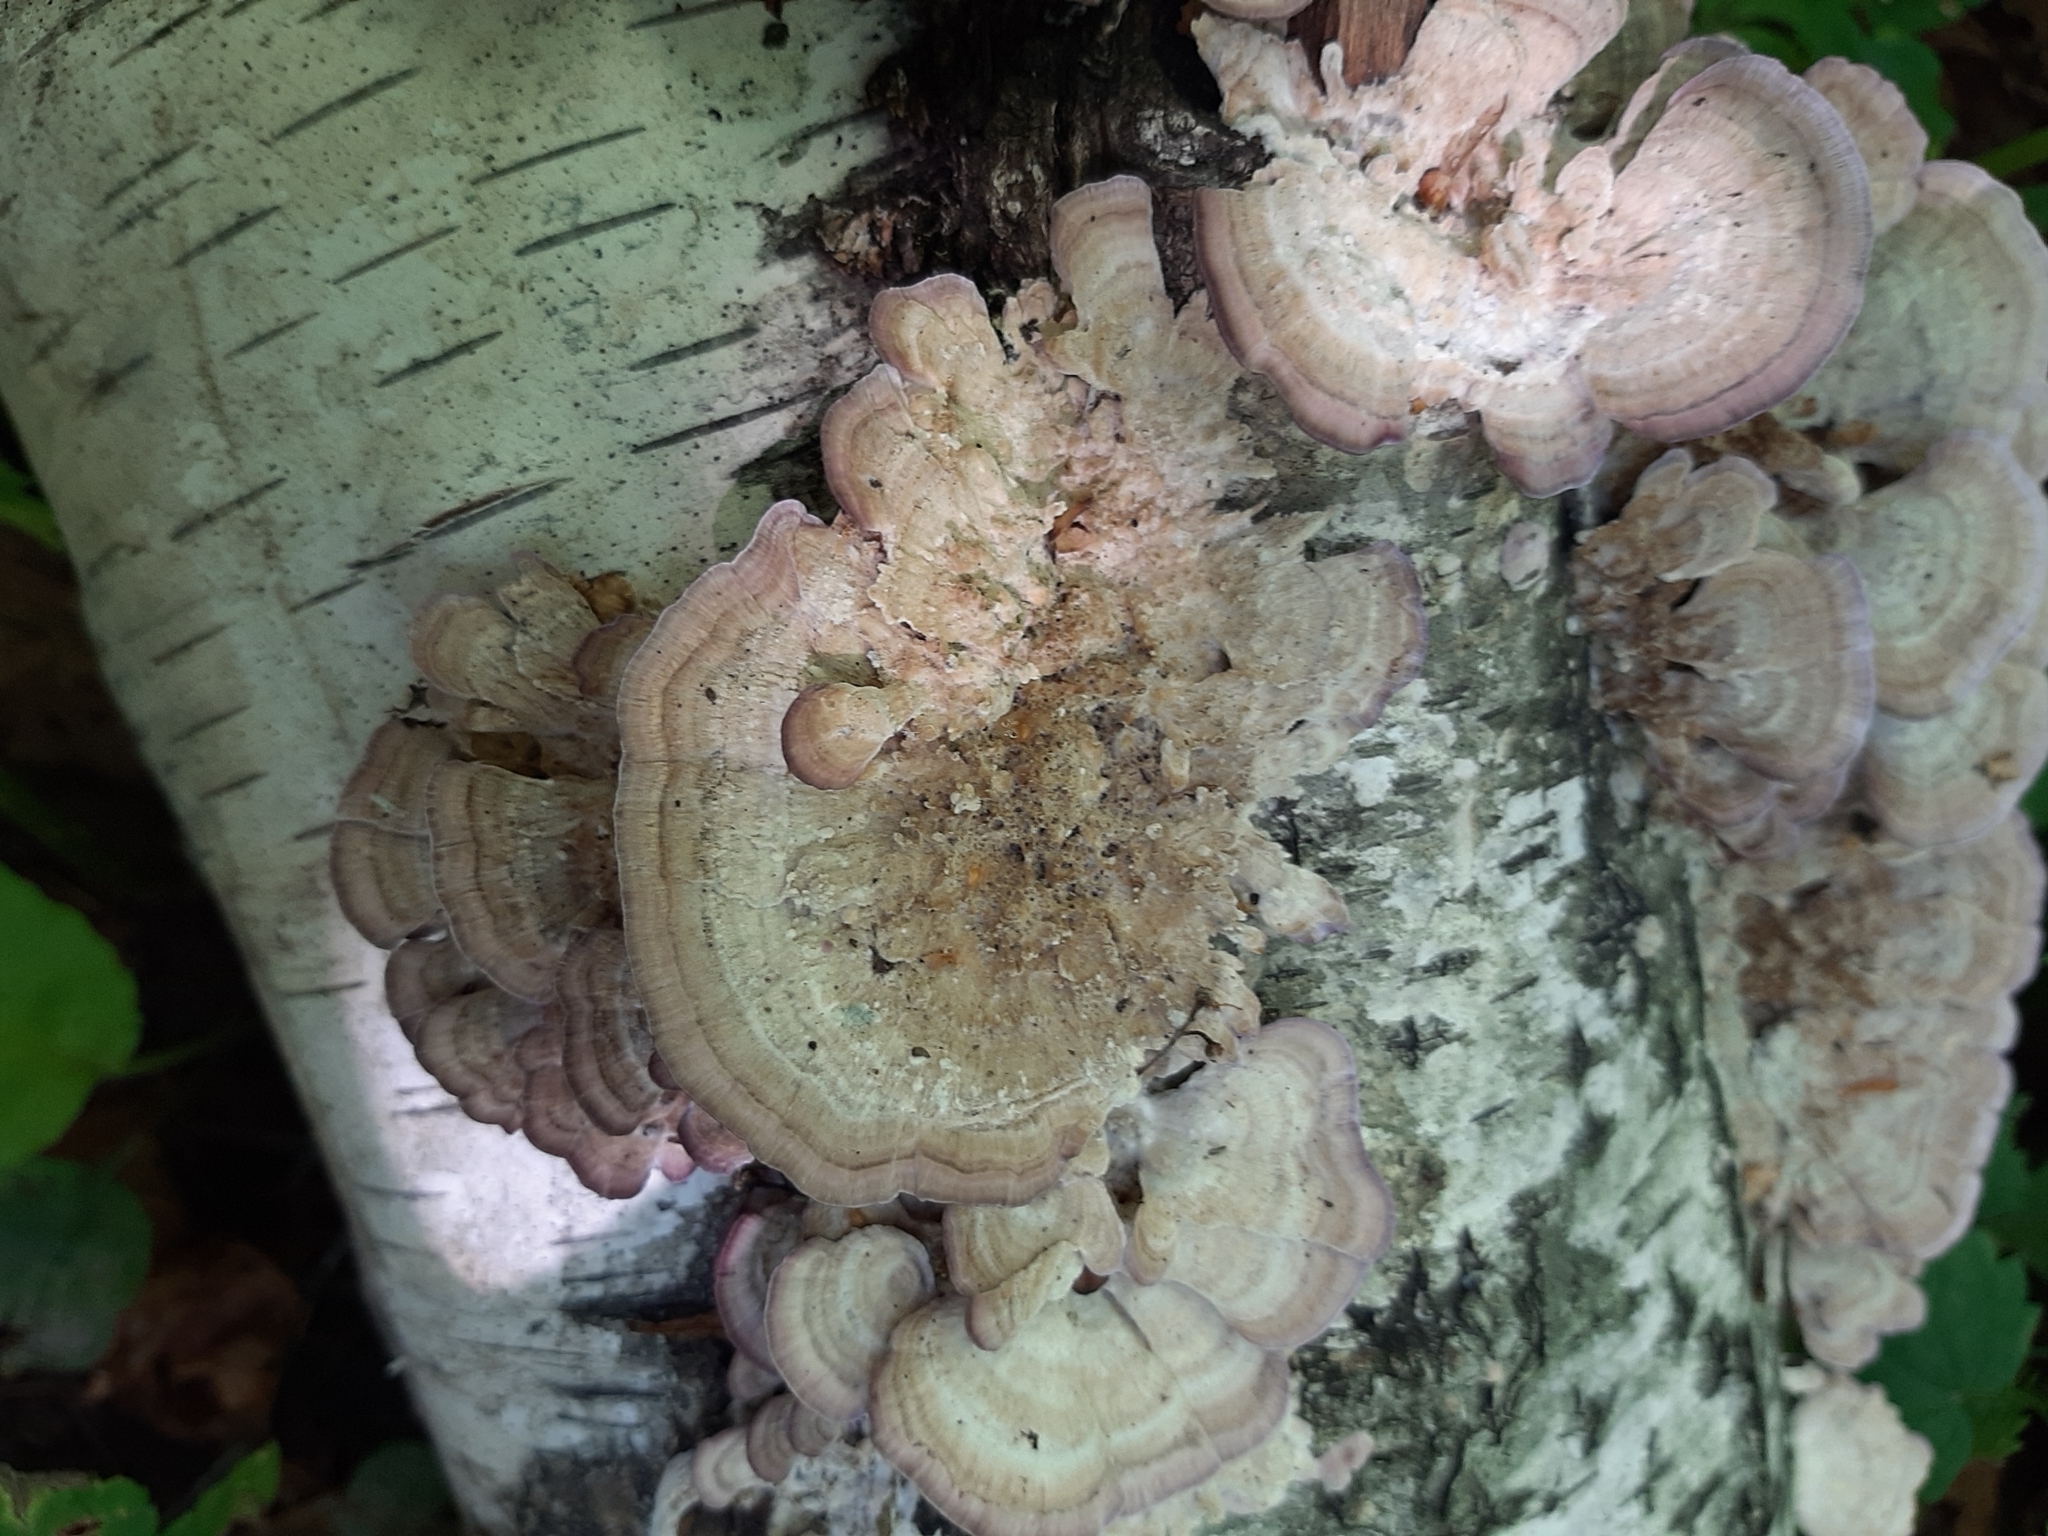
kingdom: Fungi
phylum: Basidiomycota
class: Agaricomycetes
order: Hymenochaetales
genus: Trichaptum
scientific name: Trichaptum biforme
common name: Violet-toothed polypore
